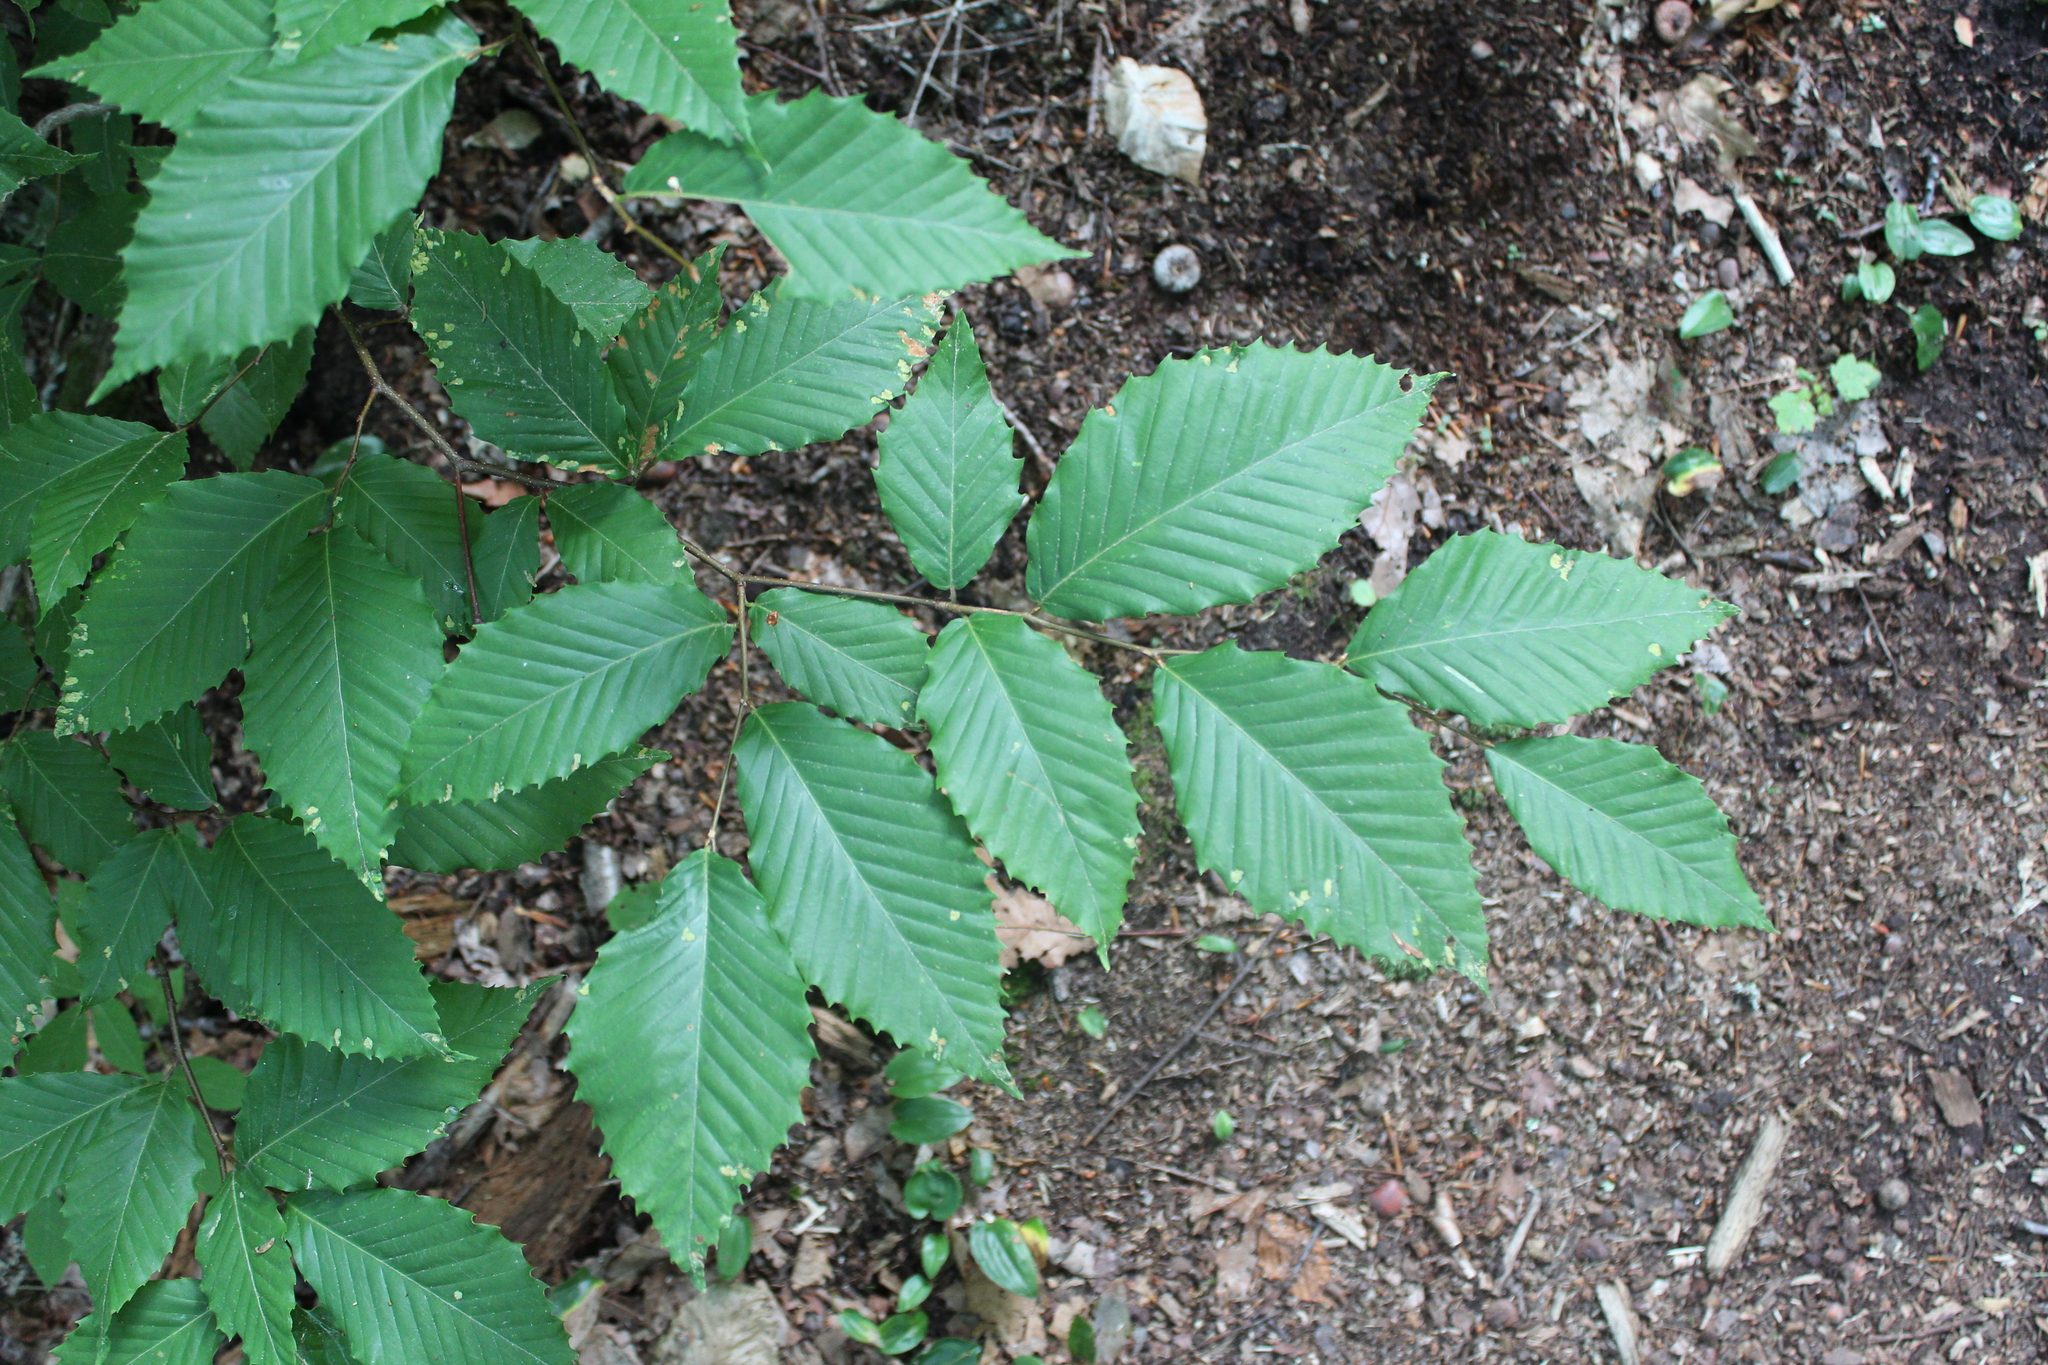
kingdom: Plantae
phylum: Tracheophyta
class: Magnoliopsida
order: Fagales
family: Fagaceae
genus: Fagus
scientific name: Fagus grandifolia
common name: American beech
